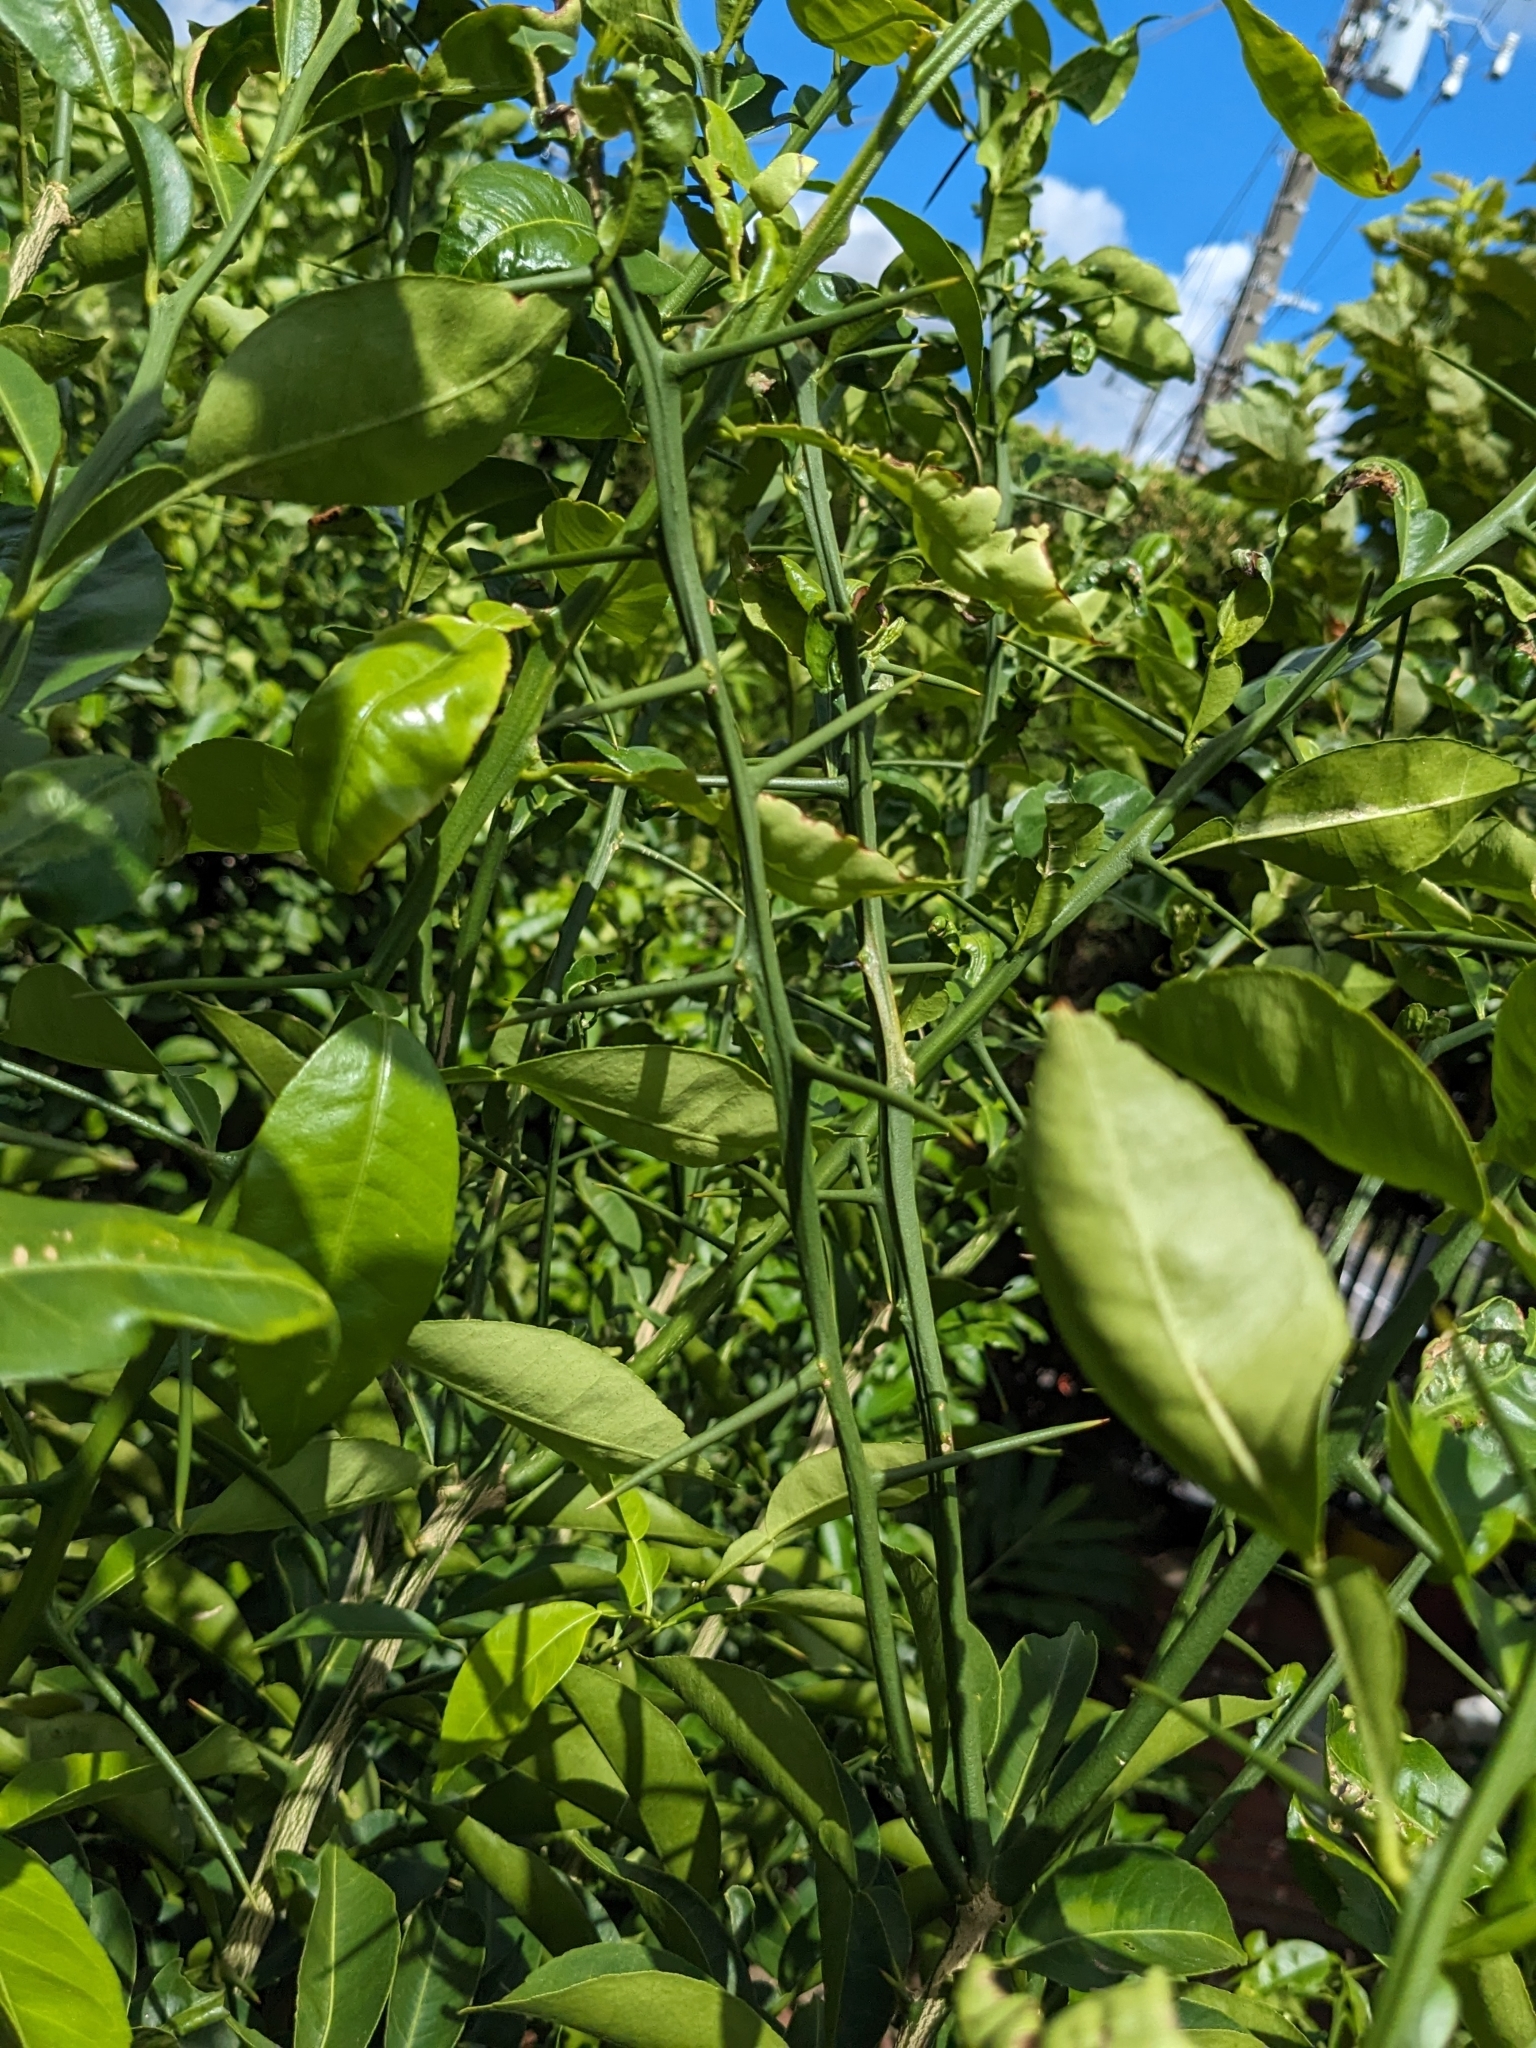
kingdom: Plantae
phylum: Tracheophyta
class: Magnoliopsida
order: Sapindales
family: Rutaceae
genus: Citrus
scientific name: Citrus trifoliata
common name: Japanese bitter-orange
